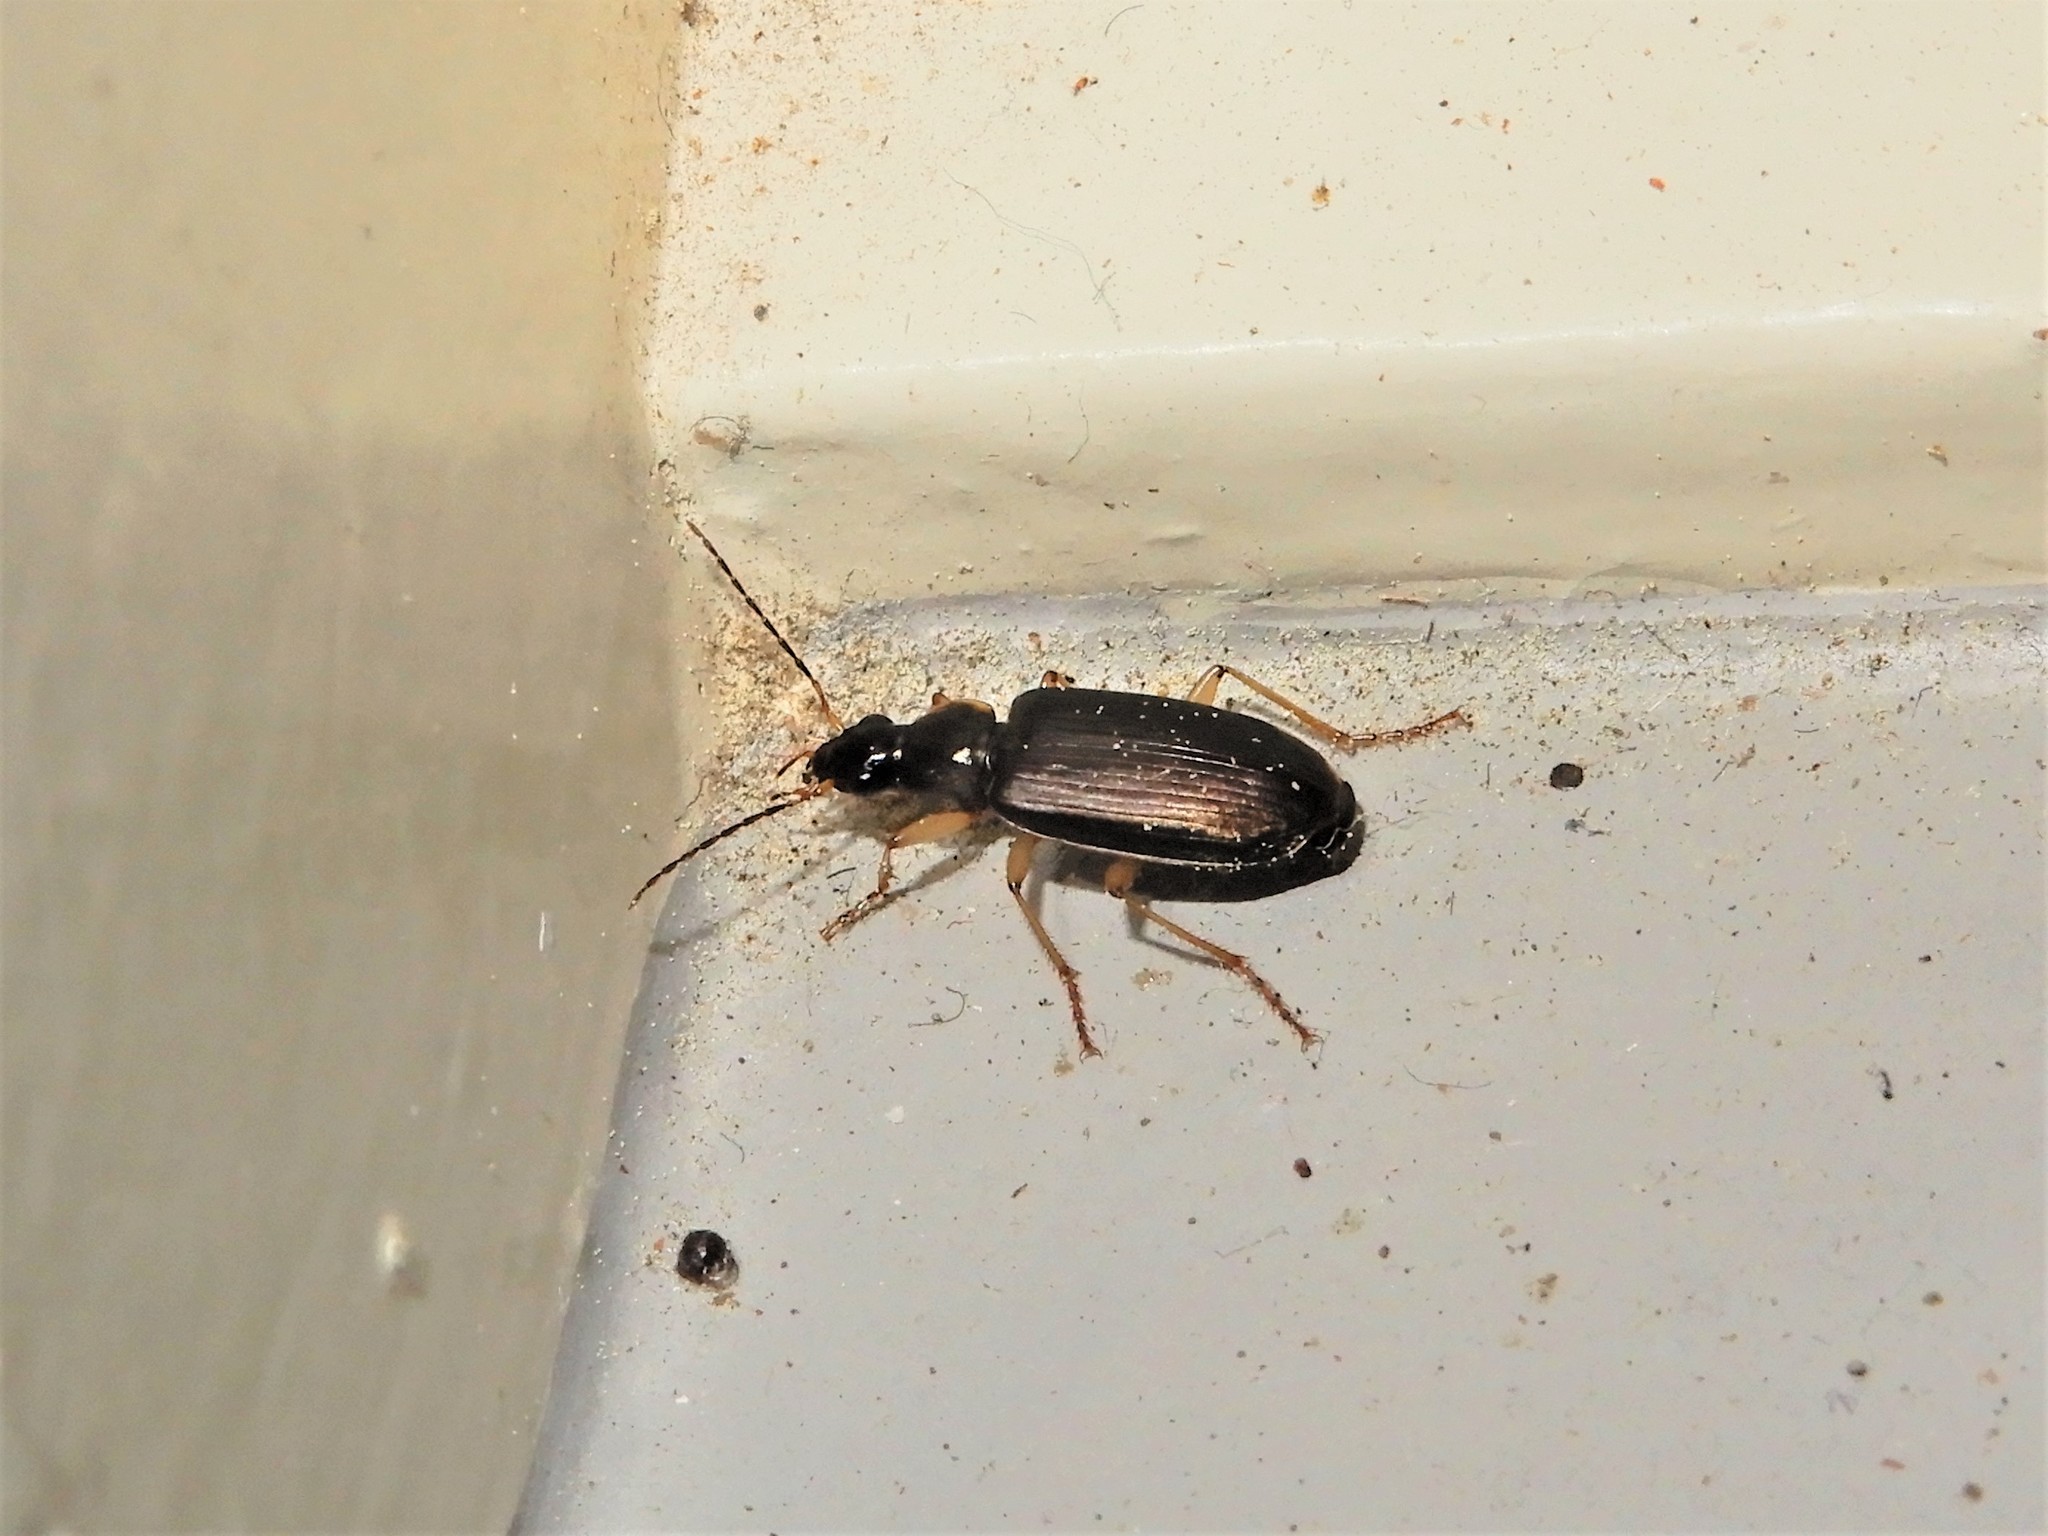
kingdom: Animalia
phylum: Arthropoda
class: Insecta
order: Coleoptera
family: Carabidae
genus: Notagonum
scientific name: Notagonum submetallicum
